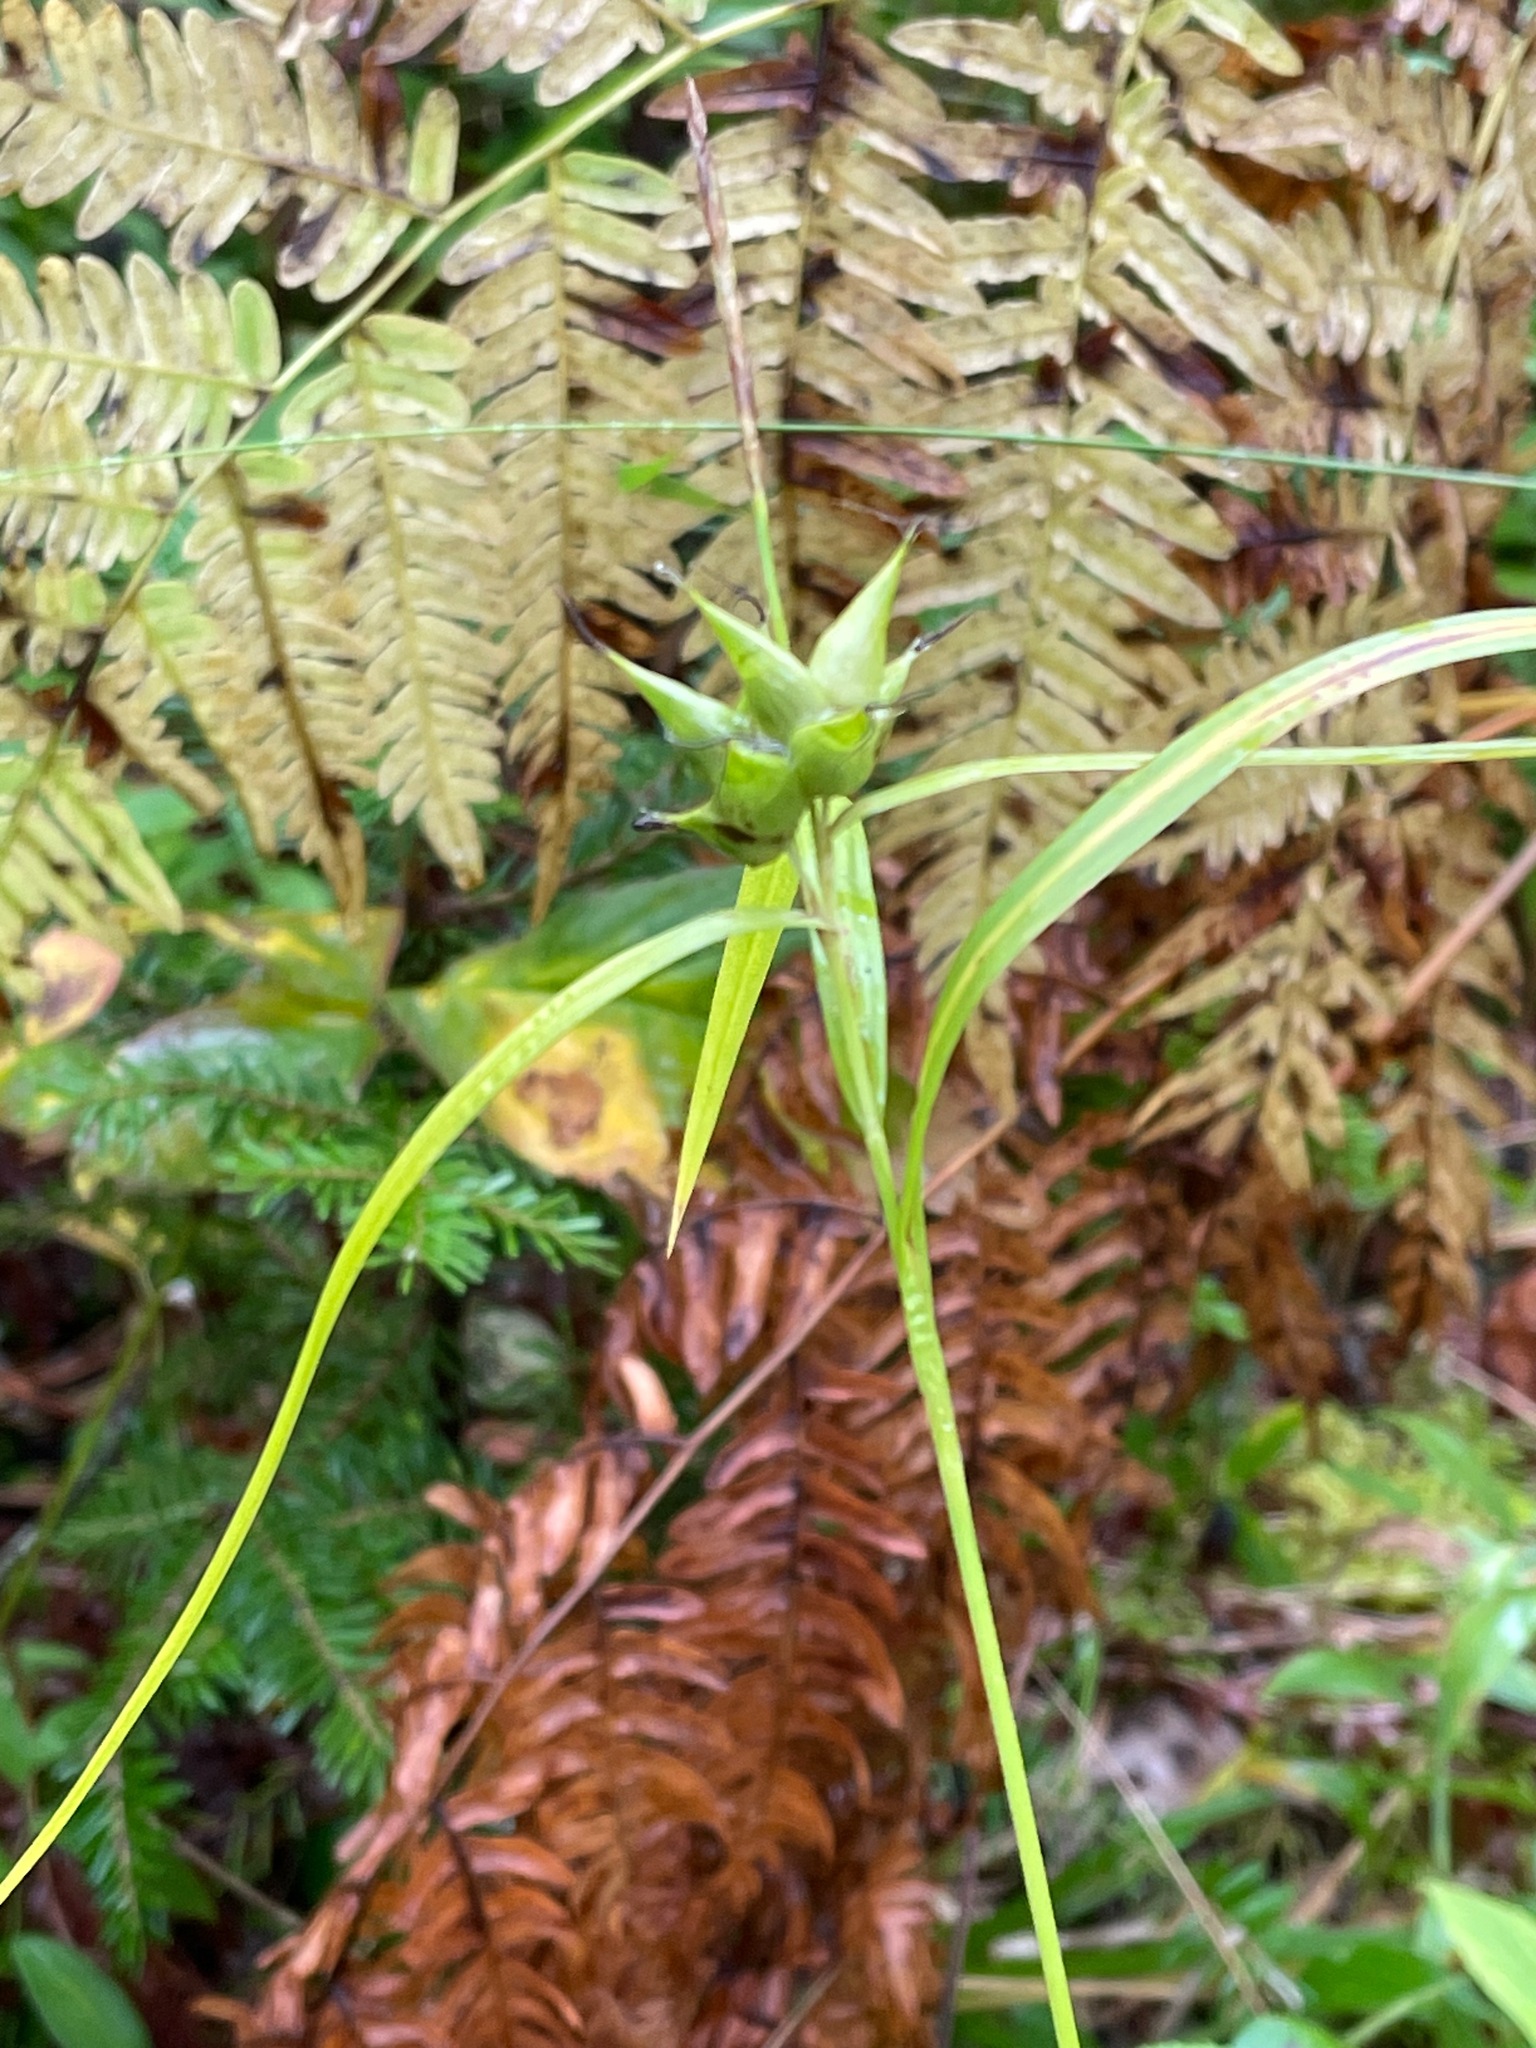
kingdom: Plantae
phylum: Tracheophyta
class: Liliopsida
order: Poales
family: Cyperaceae
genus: Carex
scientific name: Carex intumescens
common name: Greater bladder sedge
